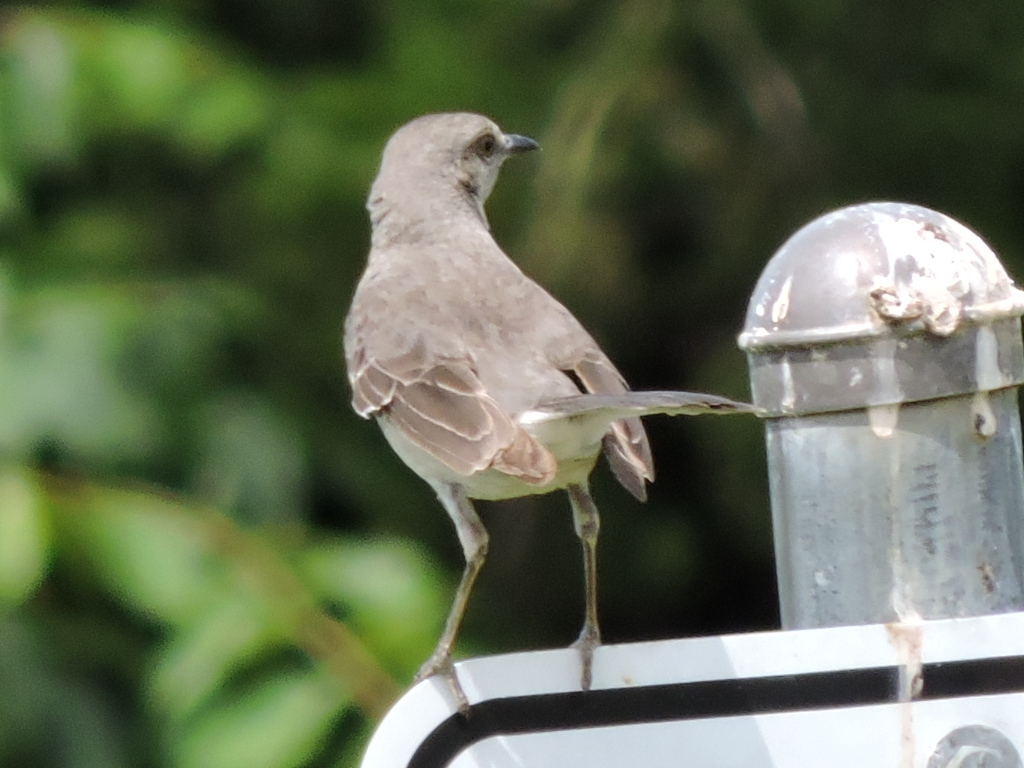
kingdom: Animalia
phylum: Chordata
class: Aves
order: Passeriformes
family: Mimidae
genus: Mimus
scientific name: Mimus polyglottos
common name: Northern mockingbird
